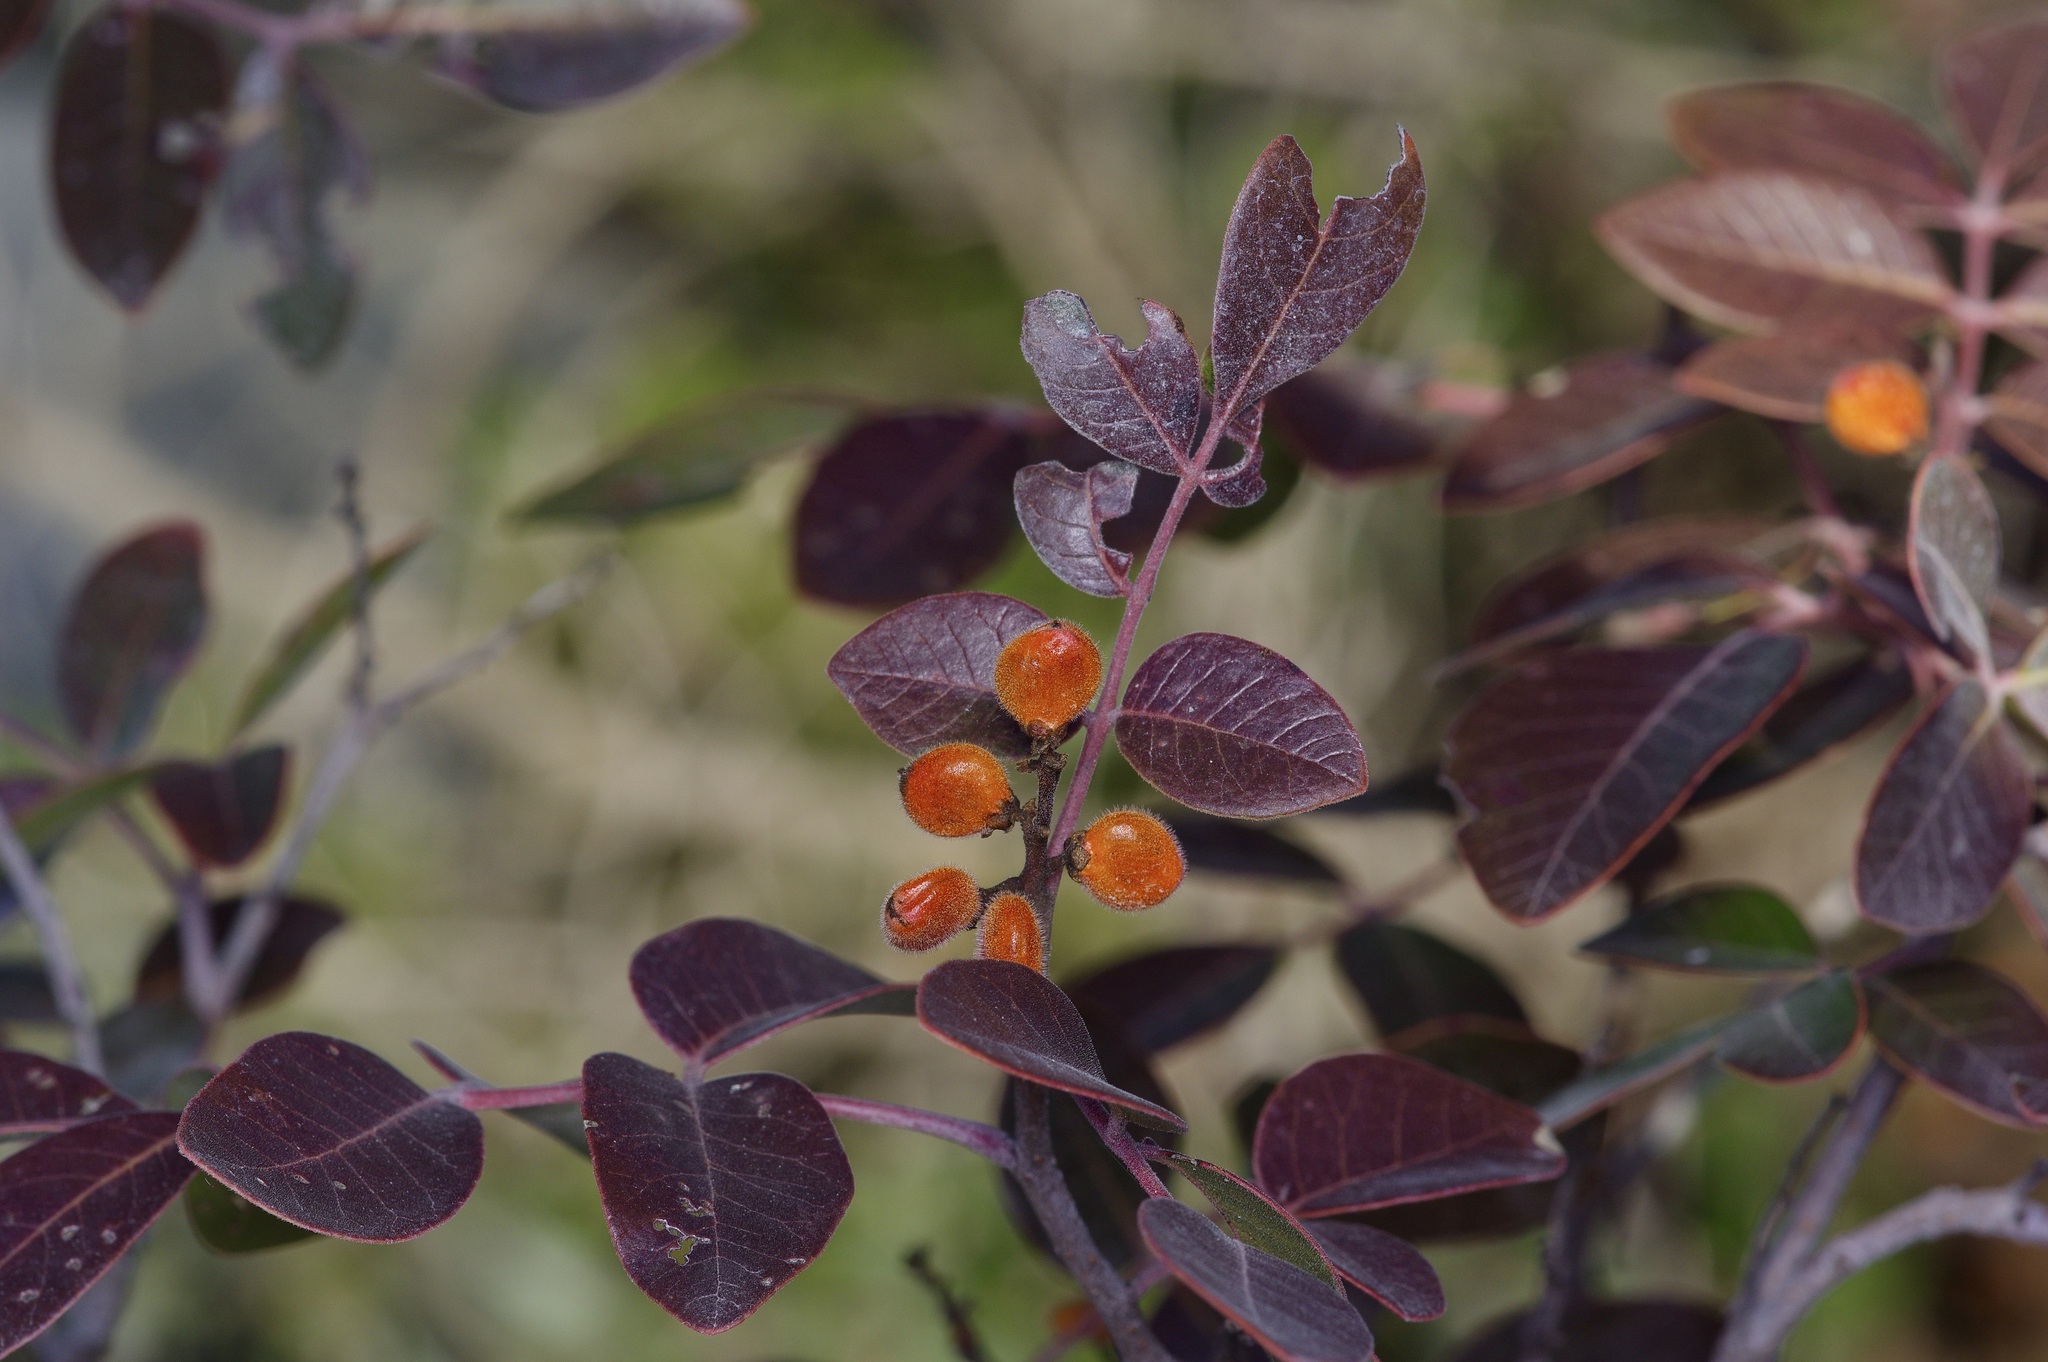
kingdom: Plantae
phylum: Tracheophyta
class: Magnoliopsida
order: Sapindales
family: Anacardiaceae
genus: Rhus
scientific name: Rhus virens
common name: Evergreen sumac
